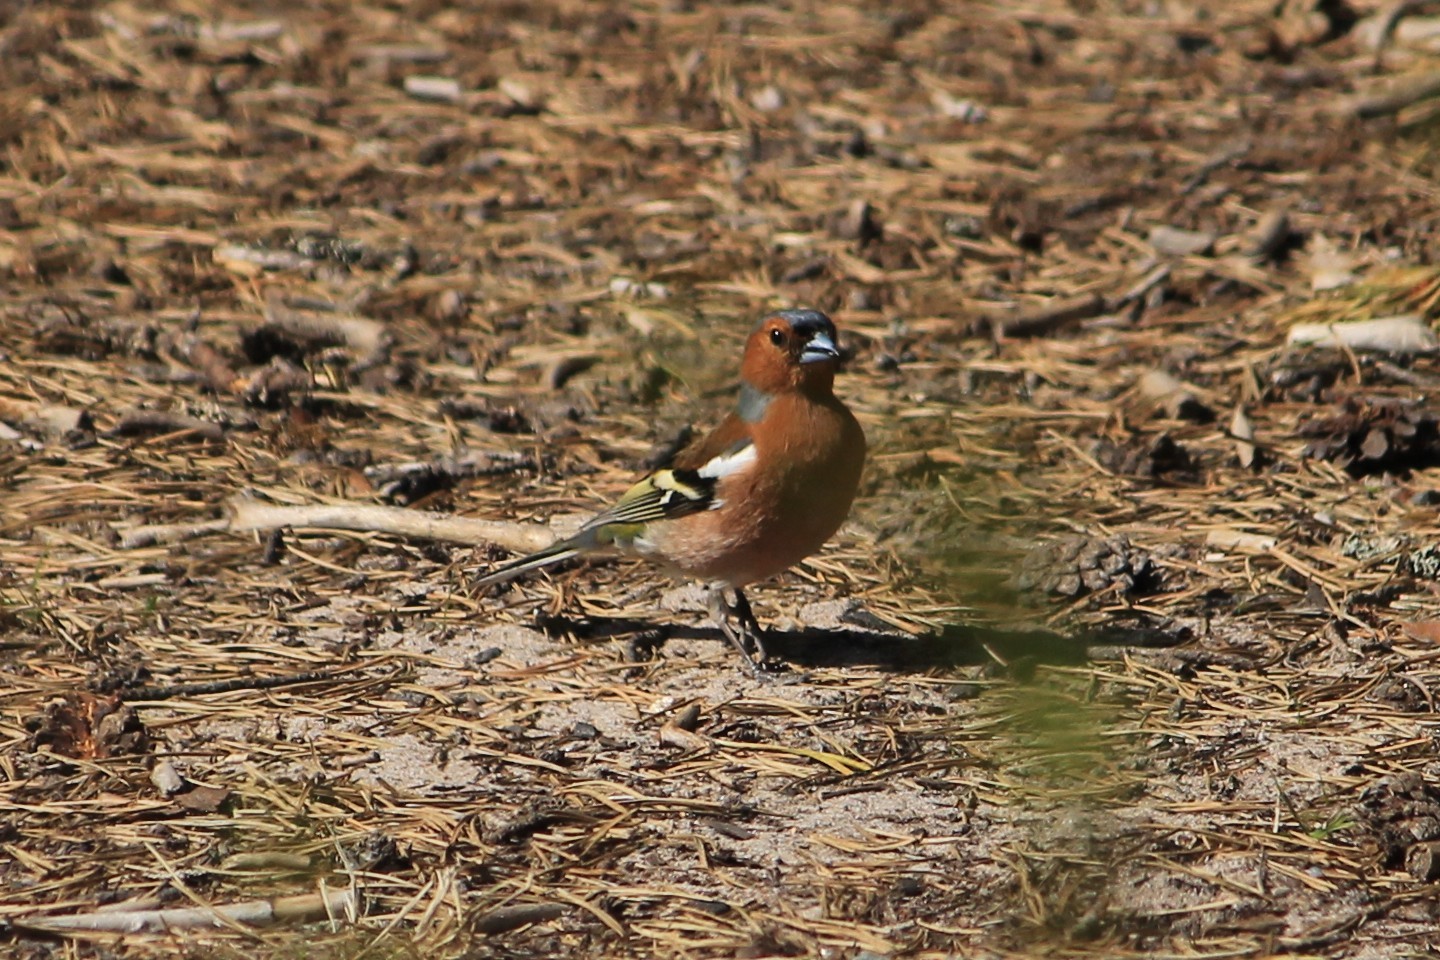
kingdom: Animalia
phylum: Chordata
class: Aves
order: Passeriformes
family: Fringillidae
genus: Fringilla
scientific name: Fringilla coelebs
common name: Common chaffinch
